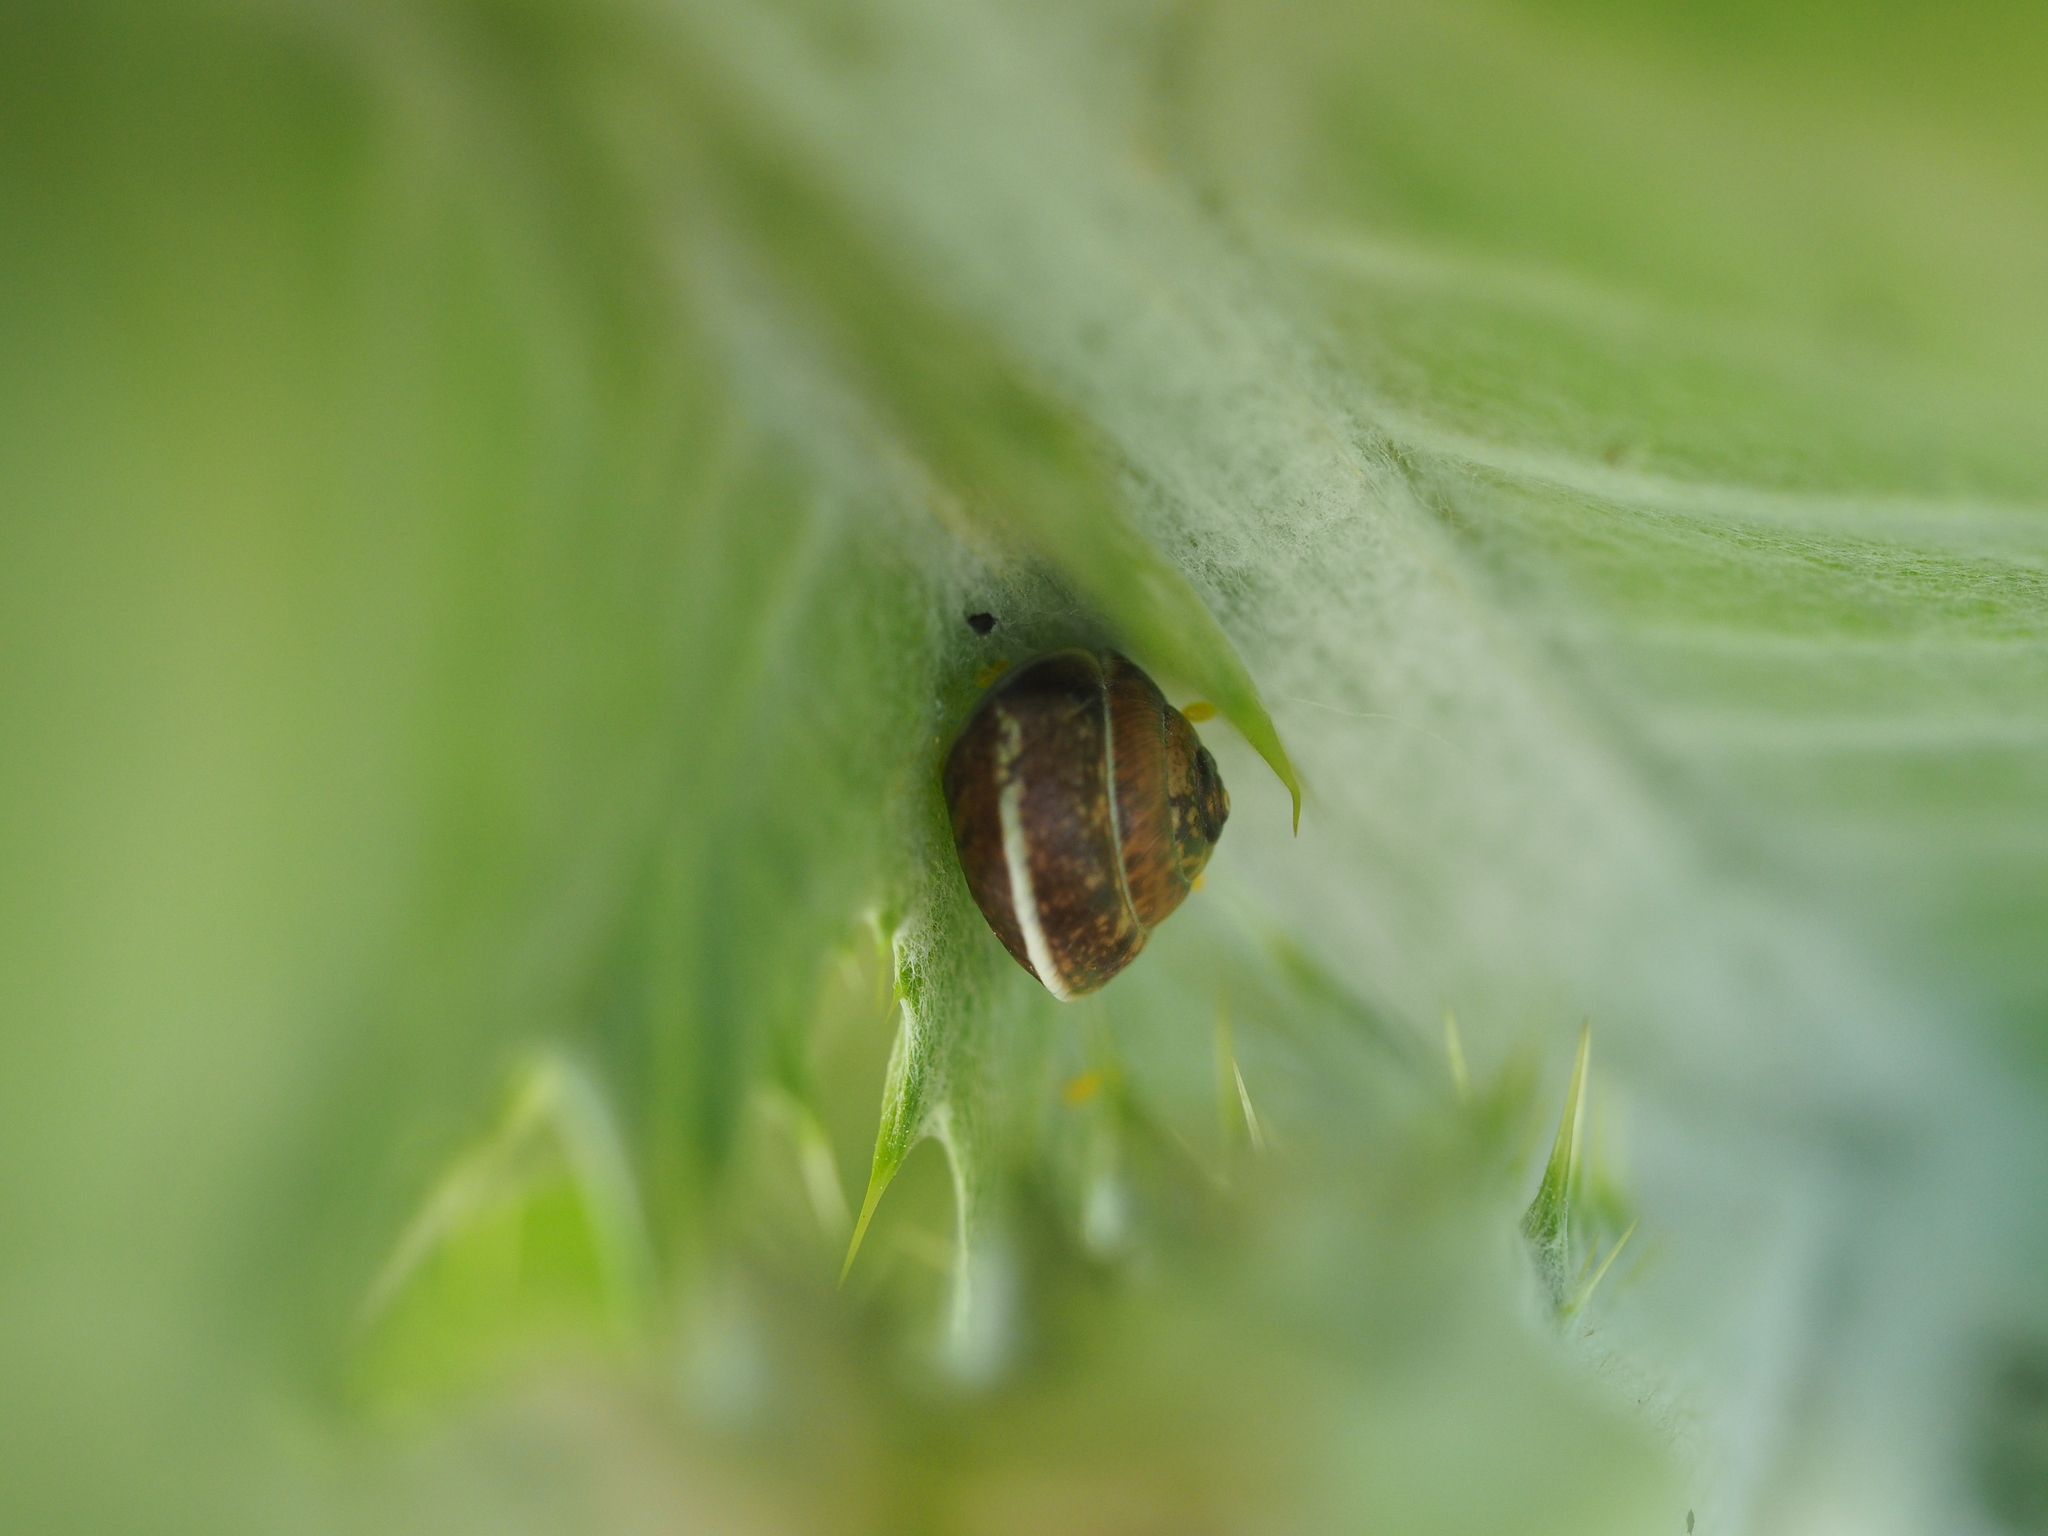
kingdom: Animalia
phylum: Mollusca
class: Gastropoda
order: Stylommatophora
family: Hygromiidae
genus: Hygromia
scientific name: Hygromia cinctella
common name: Girdled snail
